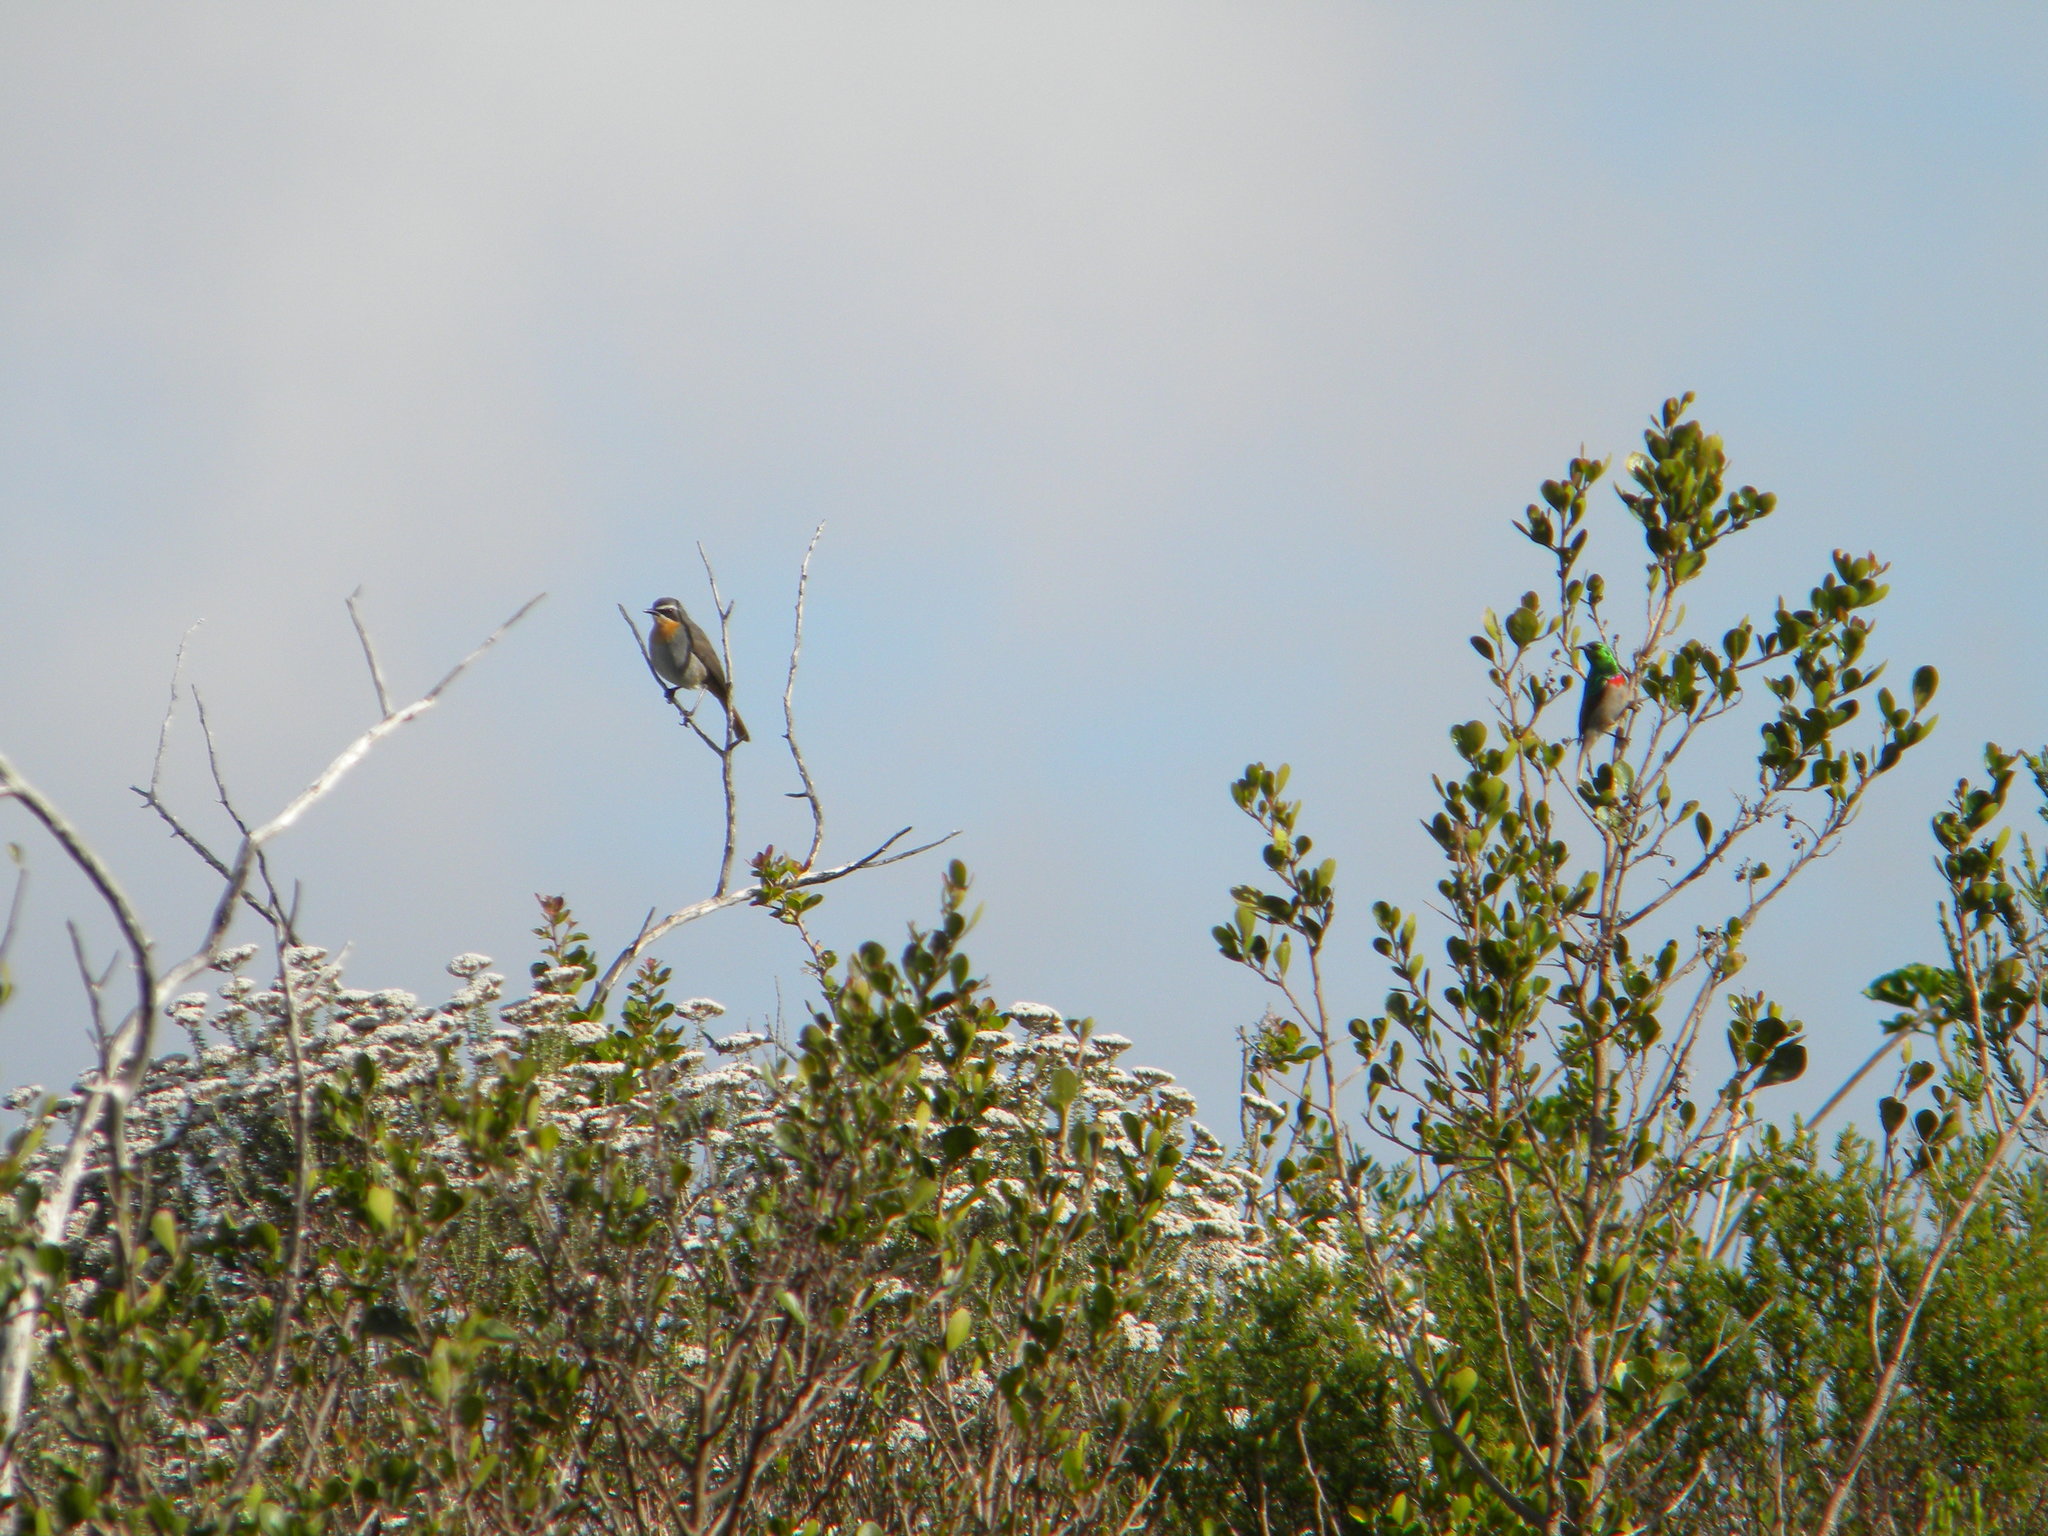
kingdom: Animalia
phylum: Chordata
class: Aves
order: Passeriformes
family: Nectariniidae
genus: Cinnyris
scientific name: Cinnyris chalybeus
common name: Southern double-collared sunbird
